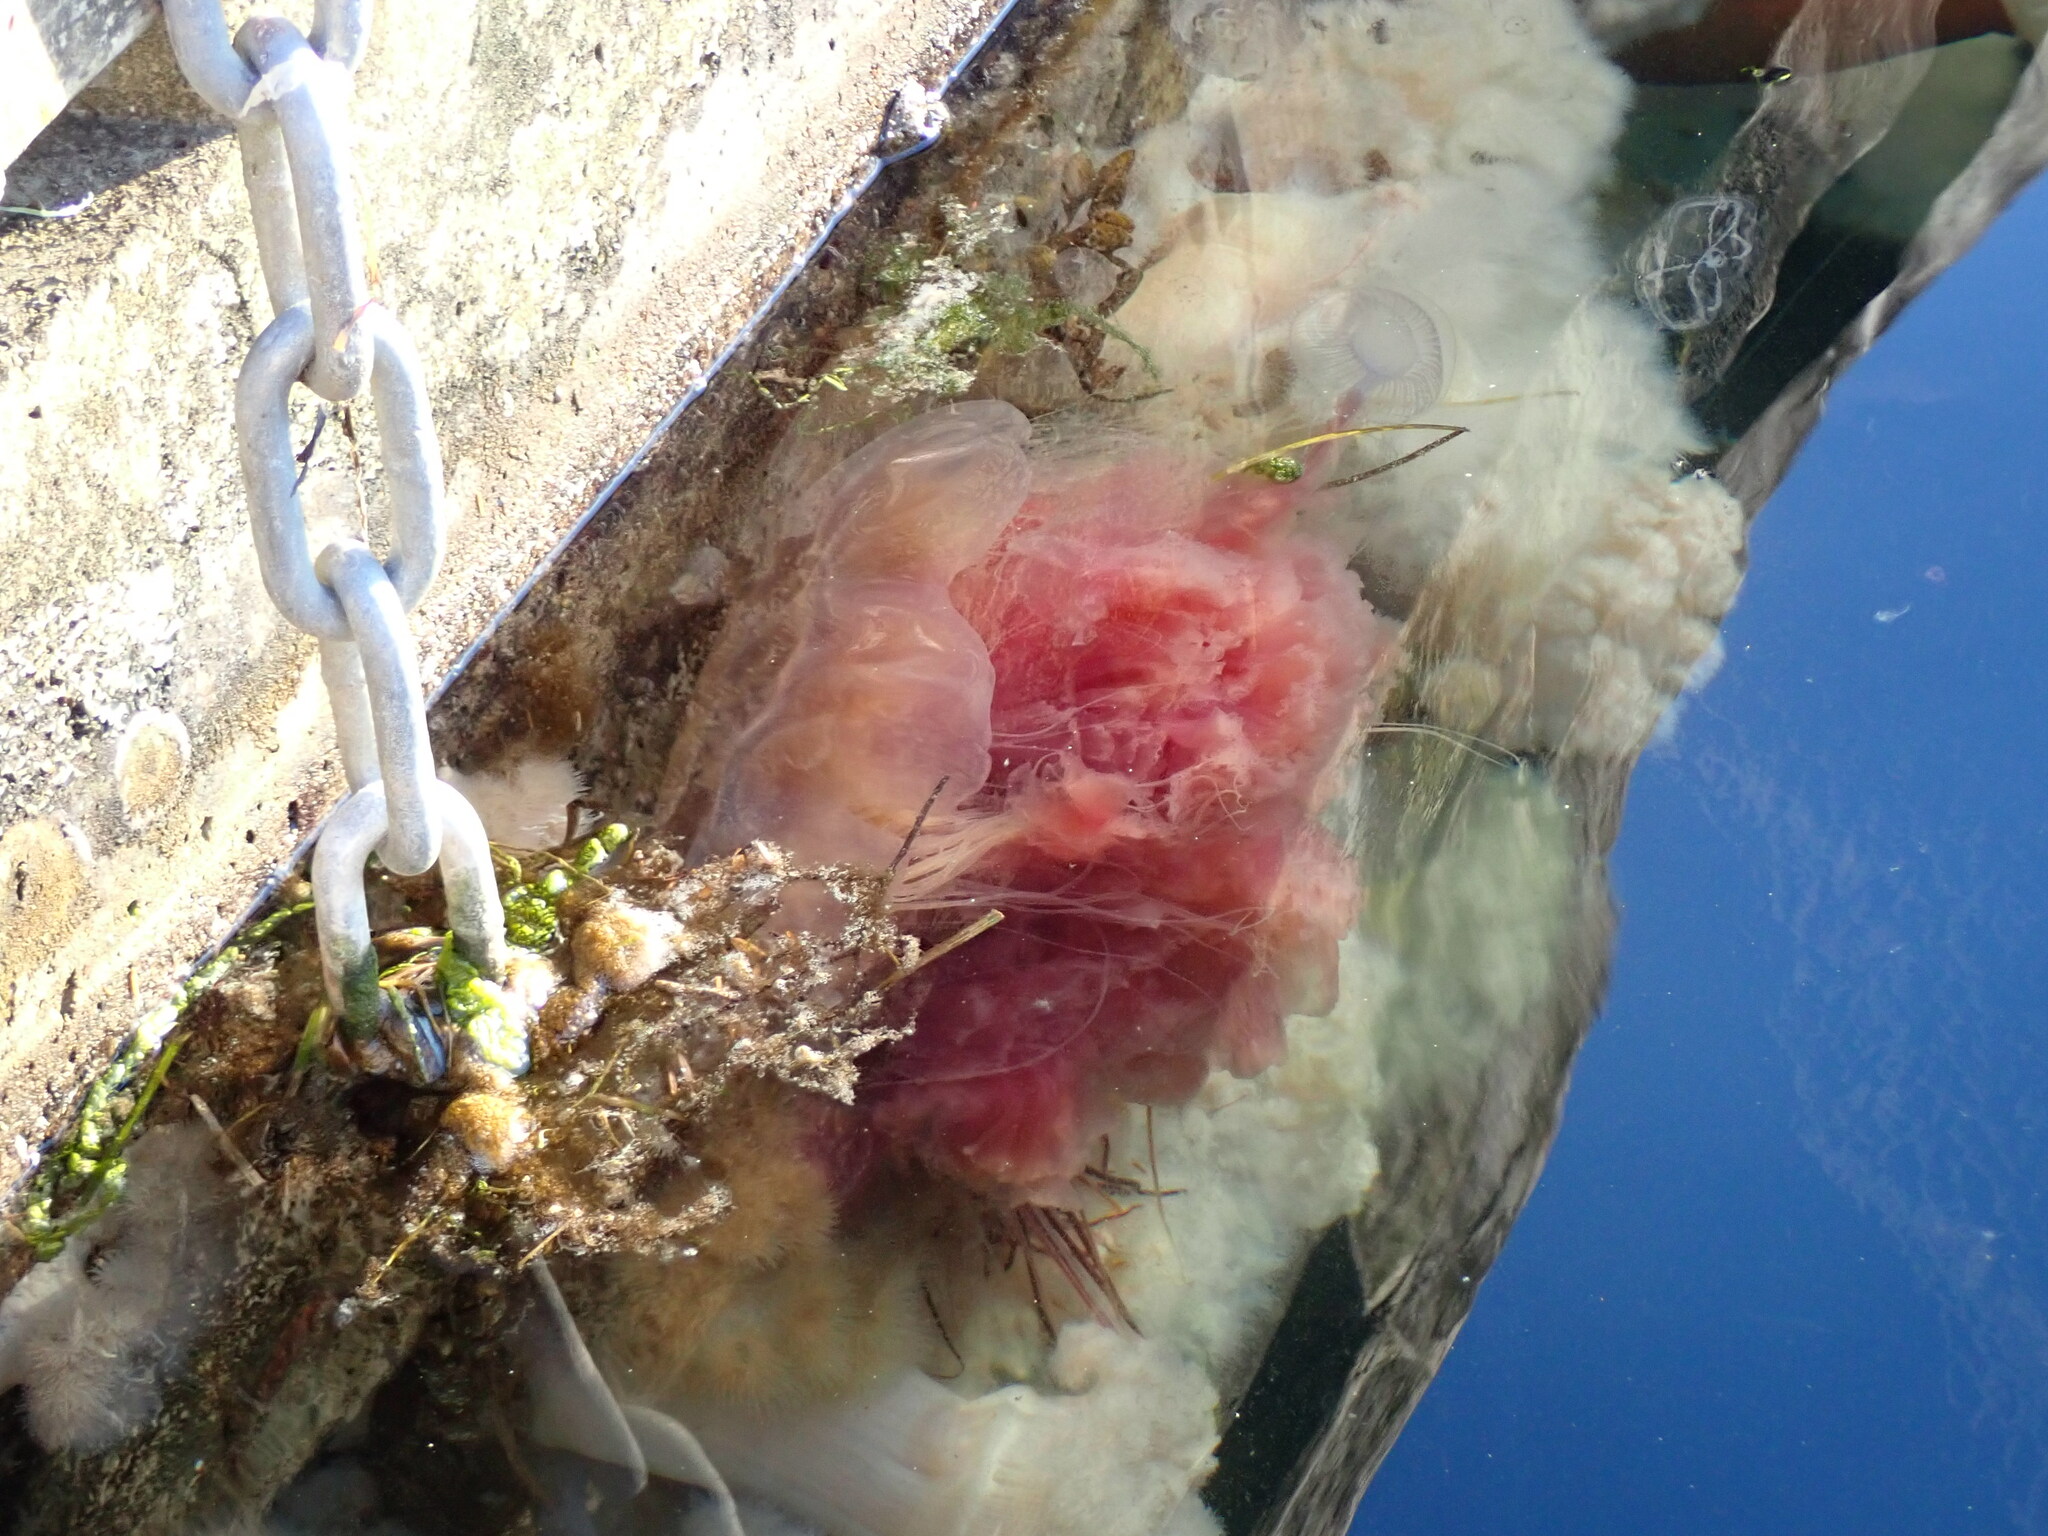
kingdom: Animalia
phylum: Cnidaria
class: Scyphozoa
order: Semaeostomeae
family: Cyaneidae
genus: Cyanea
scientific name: Cyanea ferruginea
